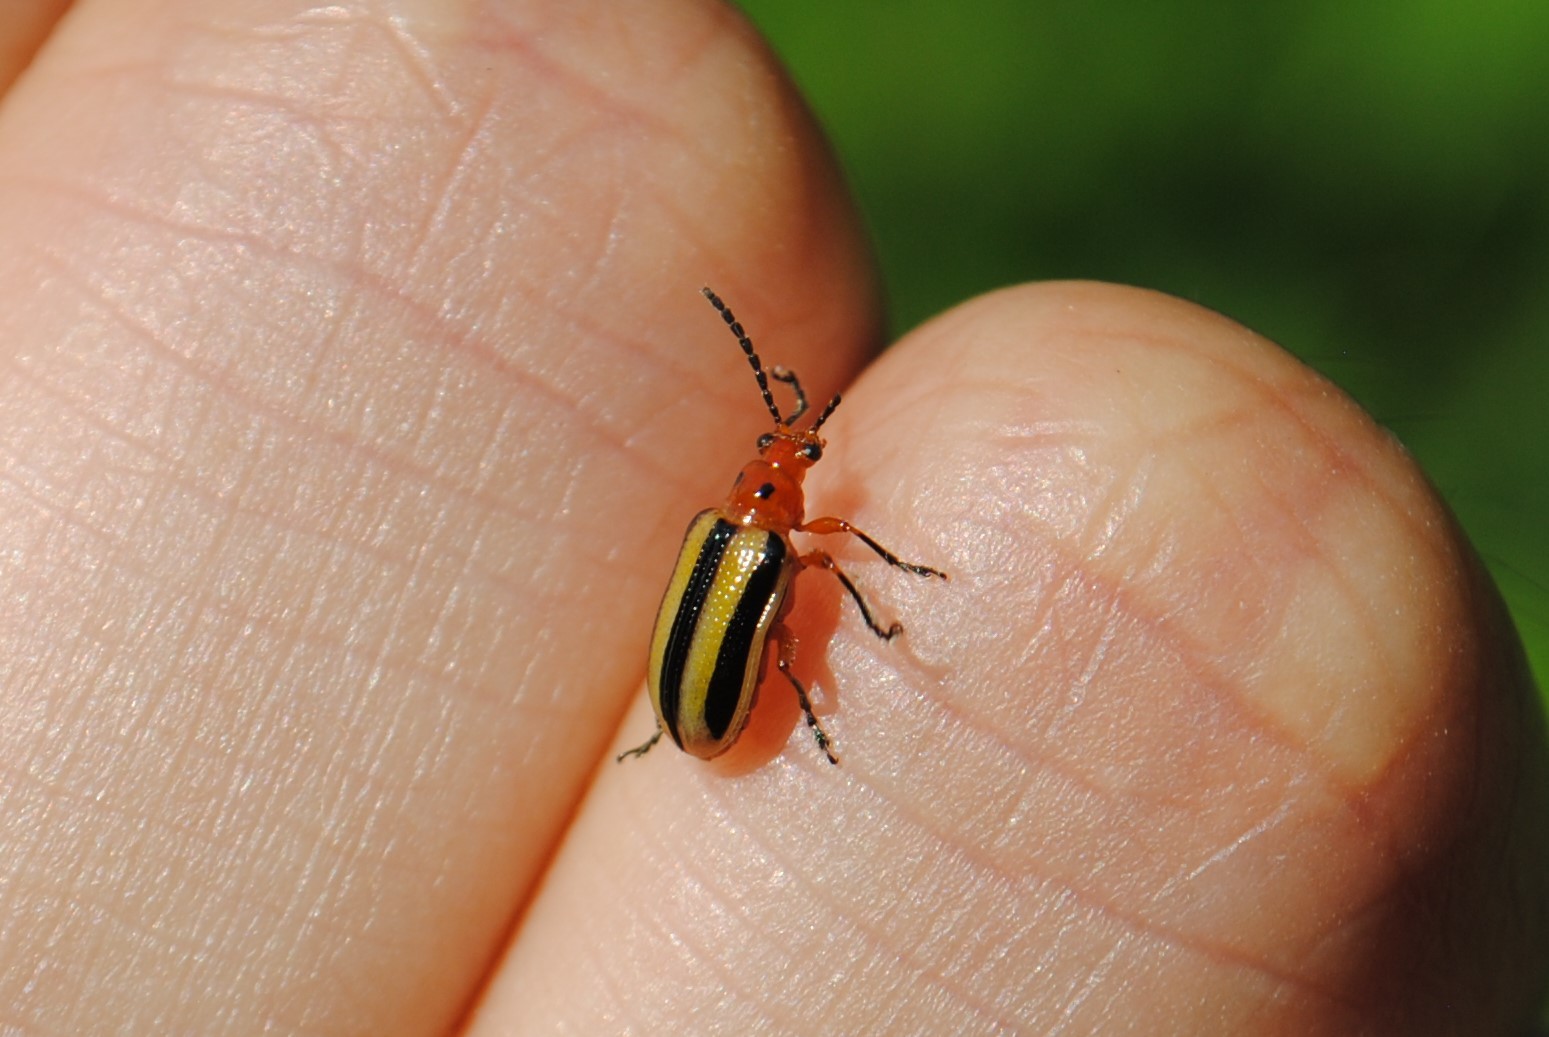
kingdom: Animalia
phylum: Arthropoda
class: Insecta
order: Coleoptera
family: Chrysomelidae
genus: Lema
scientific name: Lema daturaphila
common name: Leaf beetle
